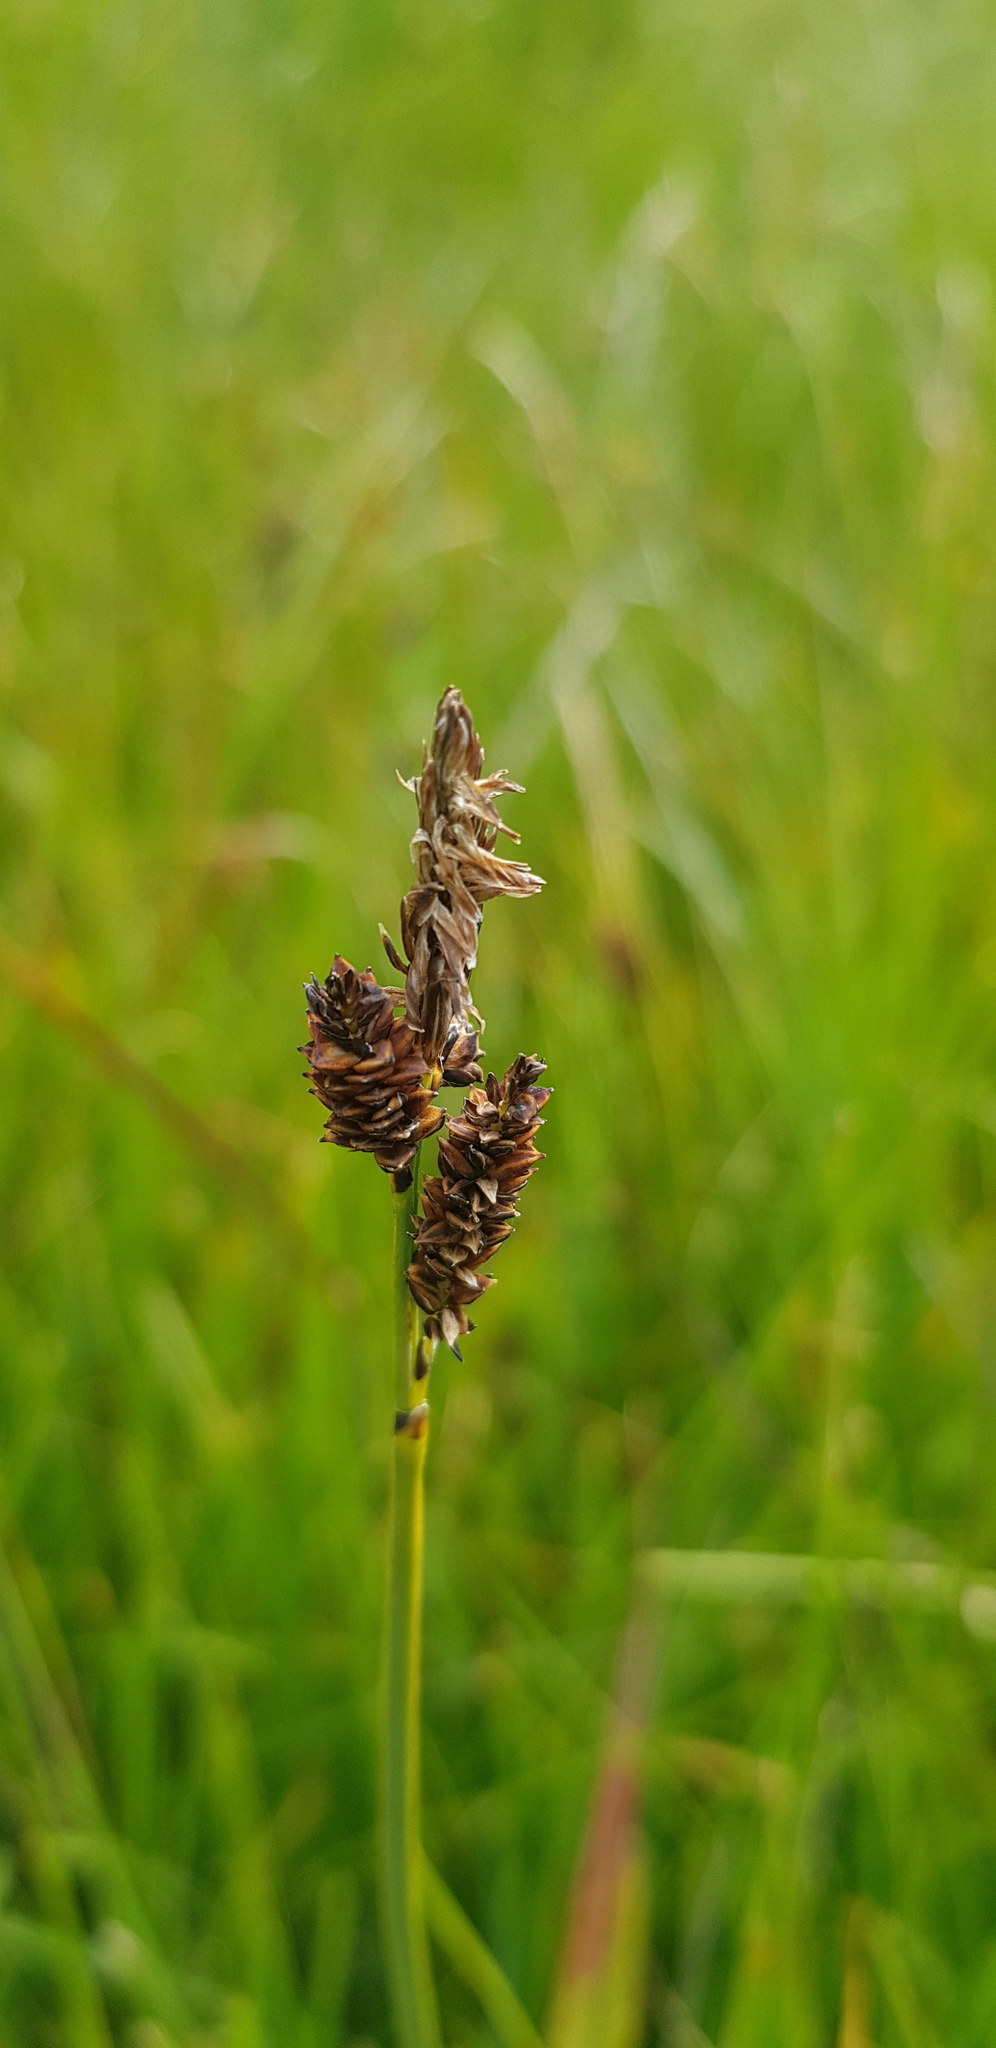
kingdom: Plantae
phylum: Tracheophyta
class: Liliopsida
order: Poales
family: Cyperaceae
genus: Carex
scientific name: Carex bigelowii
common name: Stiff sedge
